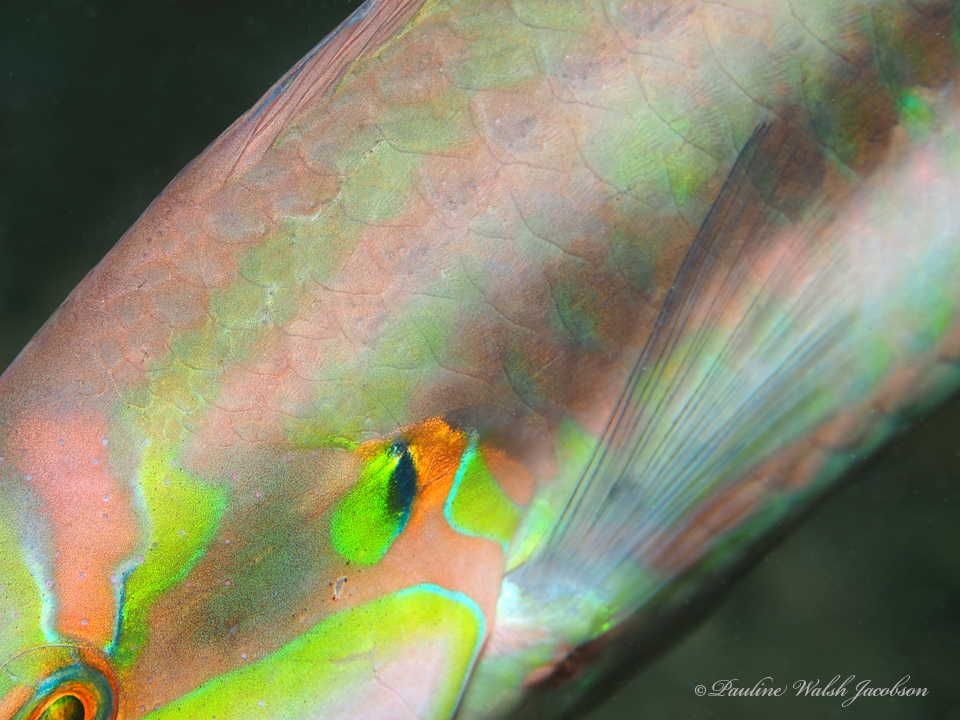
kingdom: Animalia
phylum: Chordata
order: Perciformes
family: Labridae
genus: Halichoeres
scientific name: Halichoeres bivittatus
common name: Slippery dick
